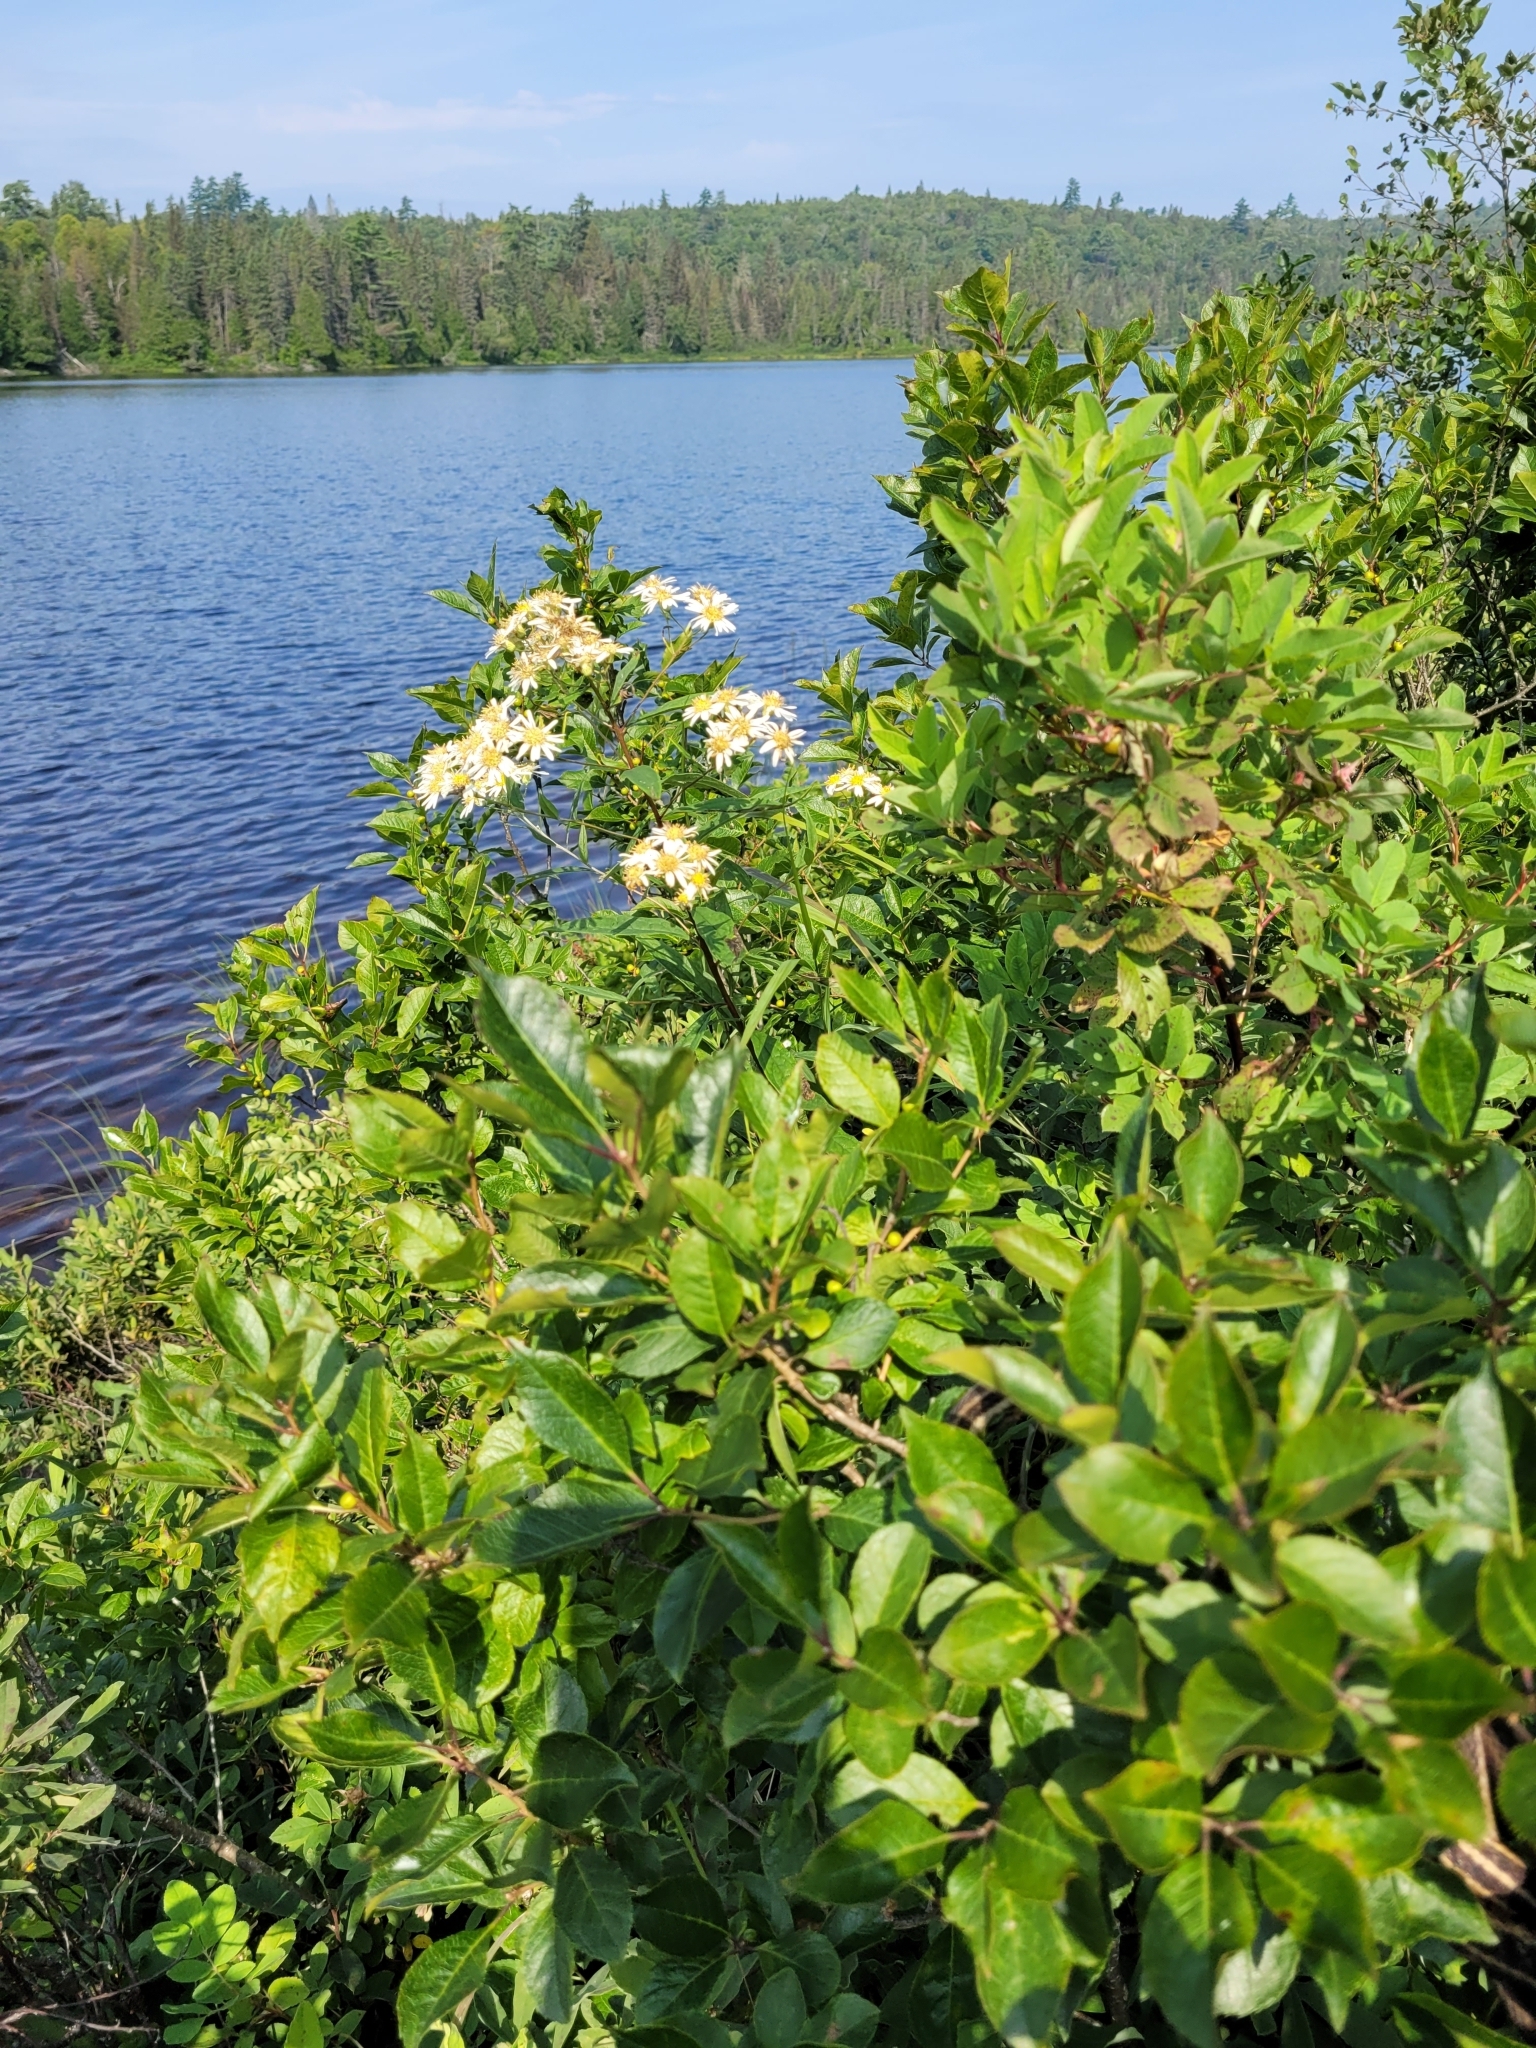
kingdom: Plantae
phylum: Tracheophyta
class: Magnoliopsida
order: Asterales
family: Asteraceae
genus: Doellingeria
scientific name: Doellingeria umbellata
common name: Flat-top white aster
